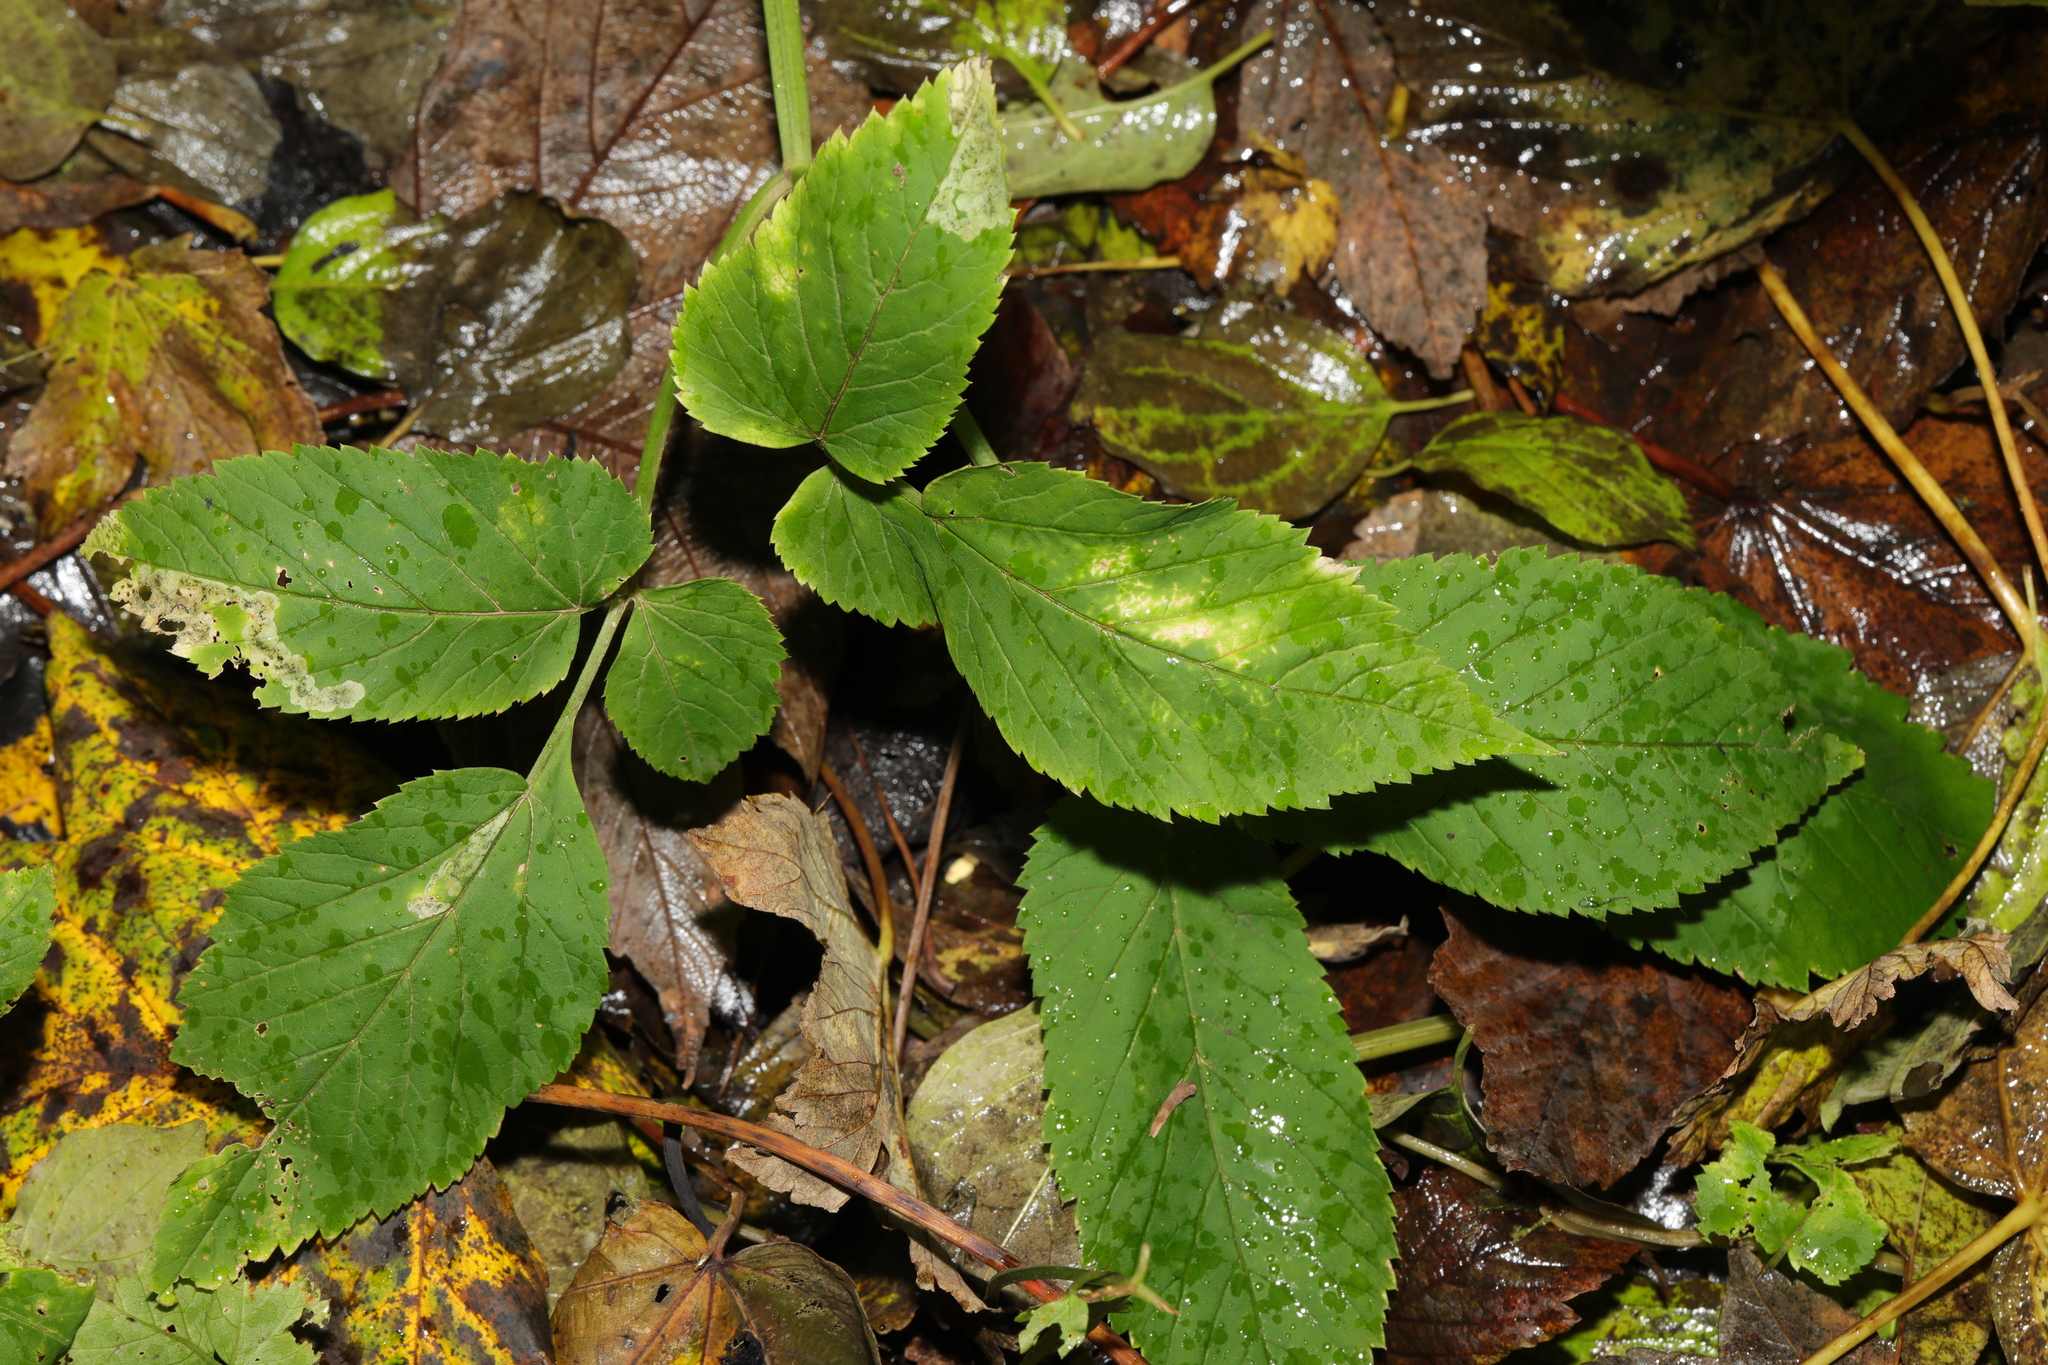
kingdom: Plantae
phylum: Tracheophyta
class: Magnoliopsida
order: Apiales
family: Apiaceae
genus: Aegopodium
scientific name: Aegopodium podagraria
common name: Ground-elder
